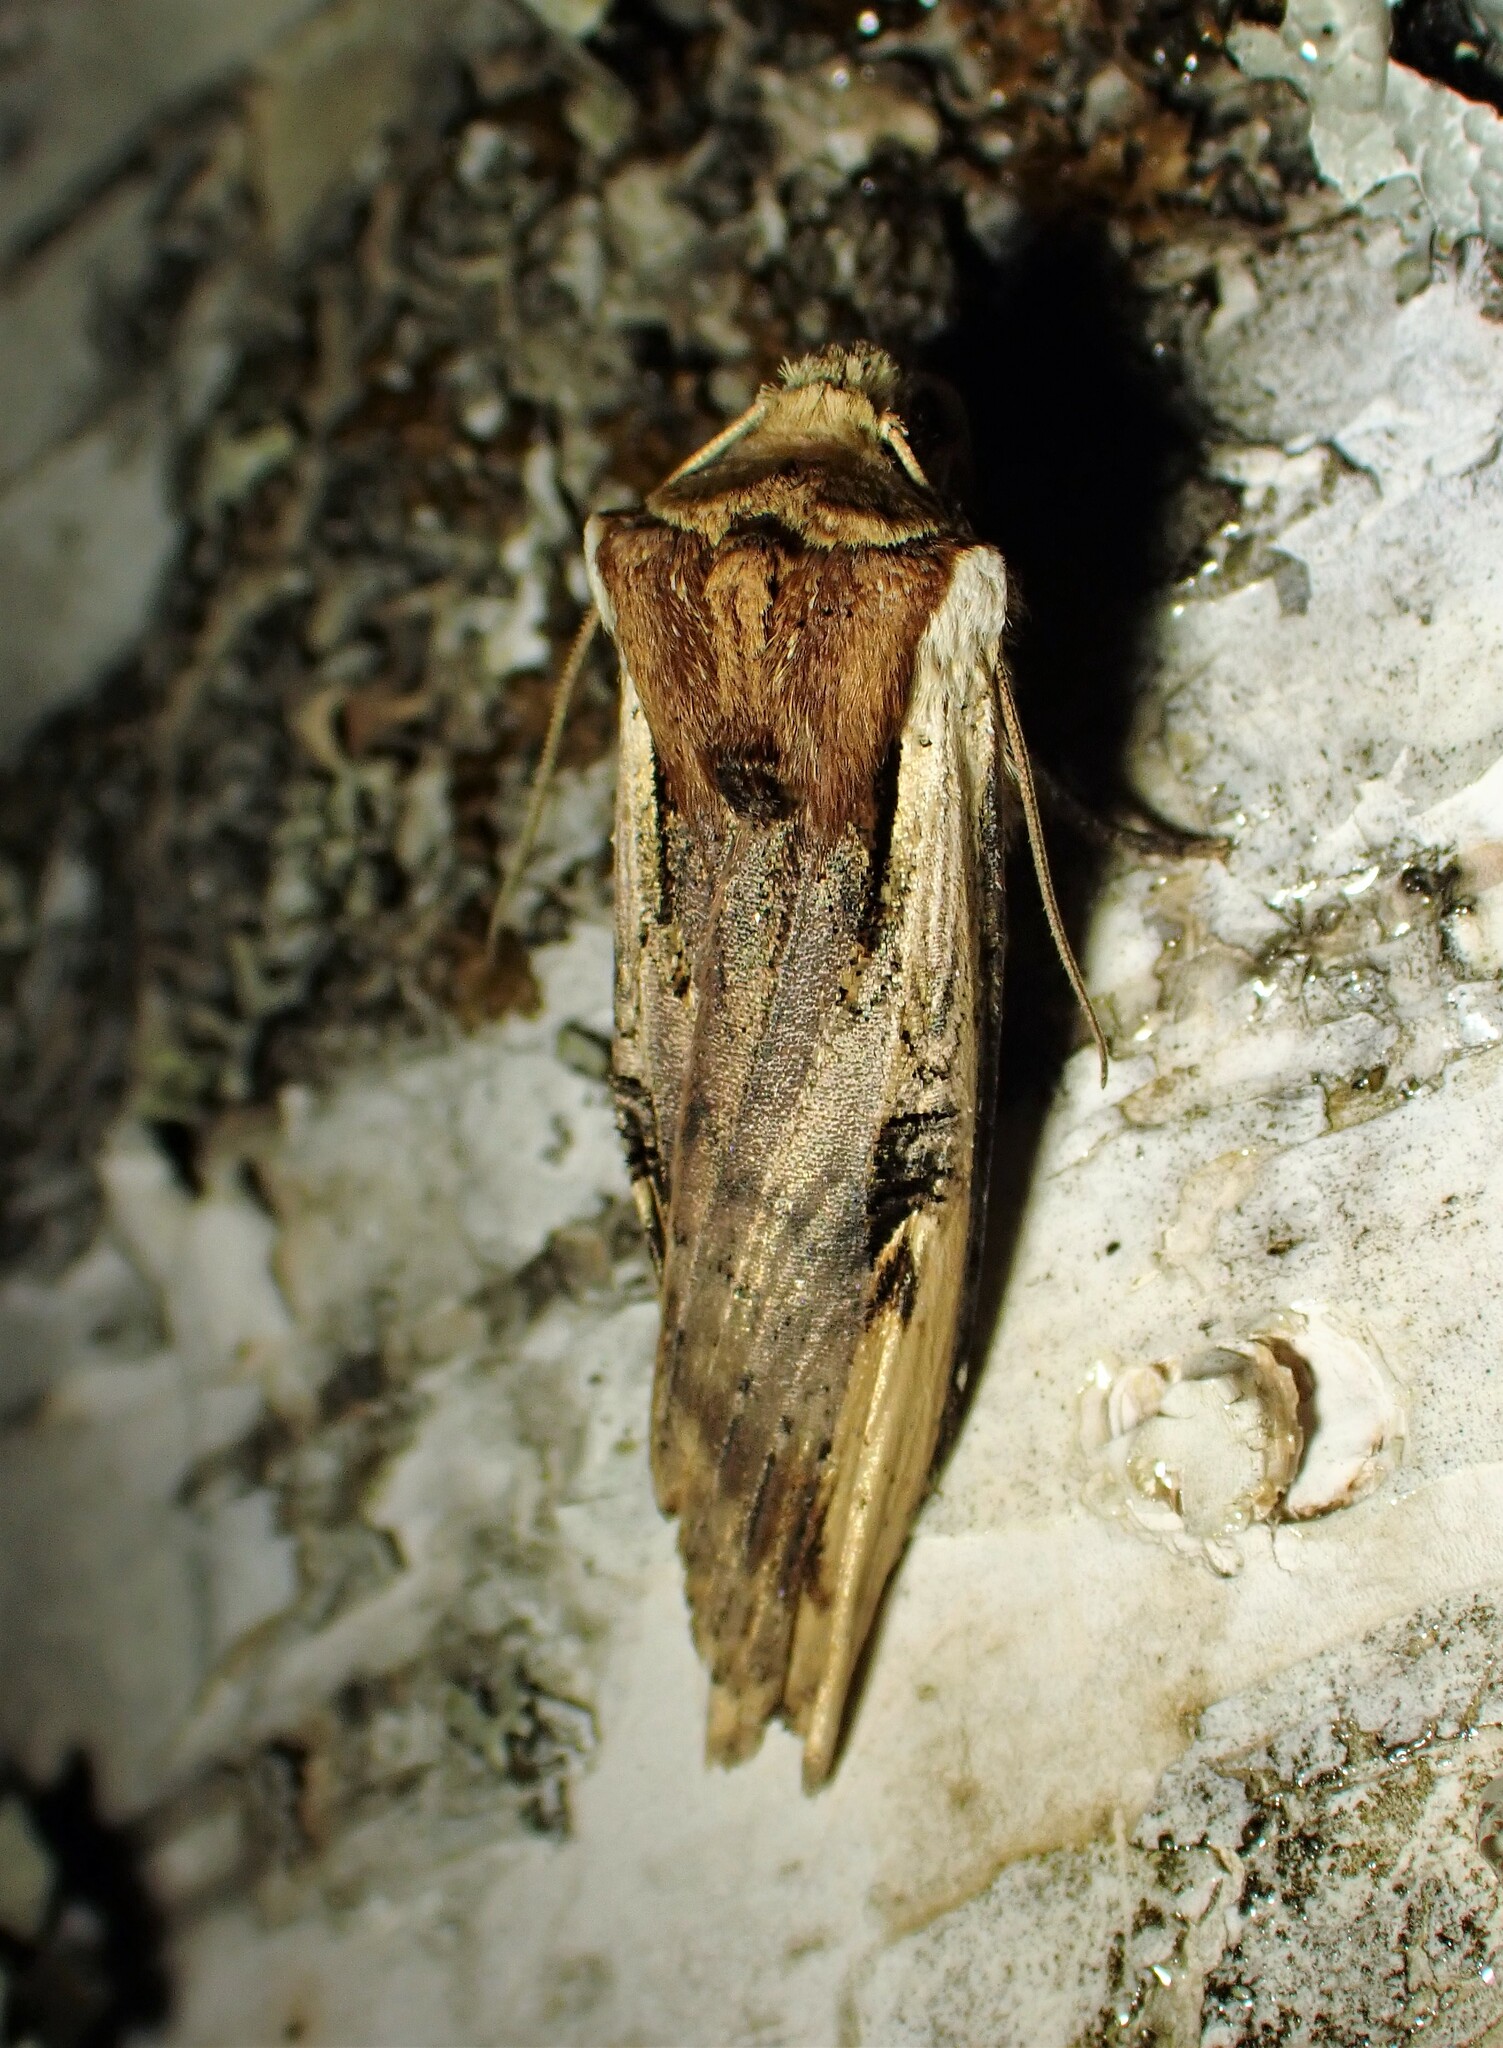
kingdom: Animalia
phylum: Arthropoda
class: Insecta
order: Lepidoptera
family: Noctuidae
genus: Xylena
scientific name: Xylena curvimacula
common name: Dot-and-dash swordgrass moth
